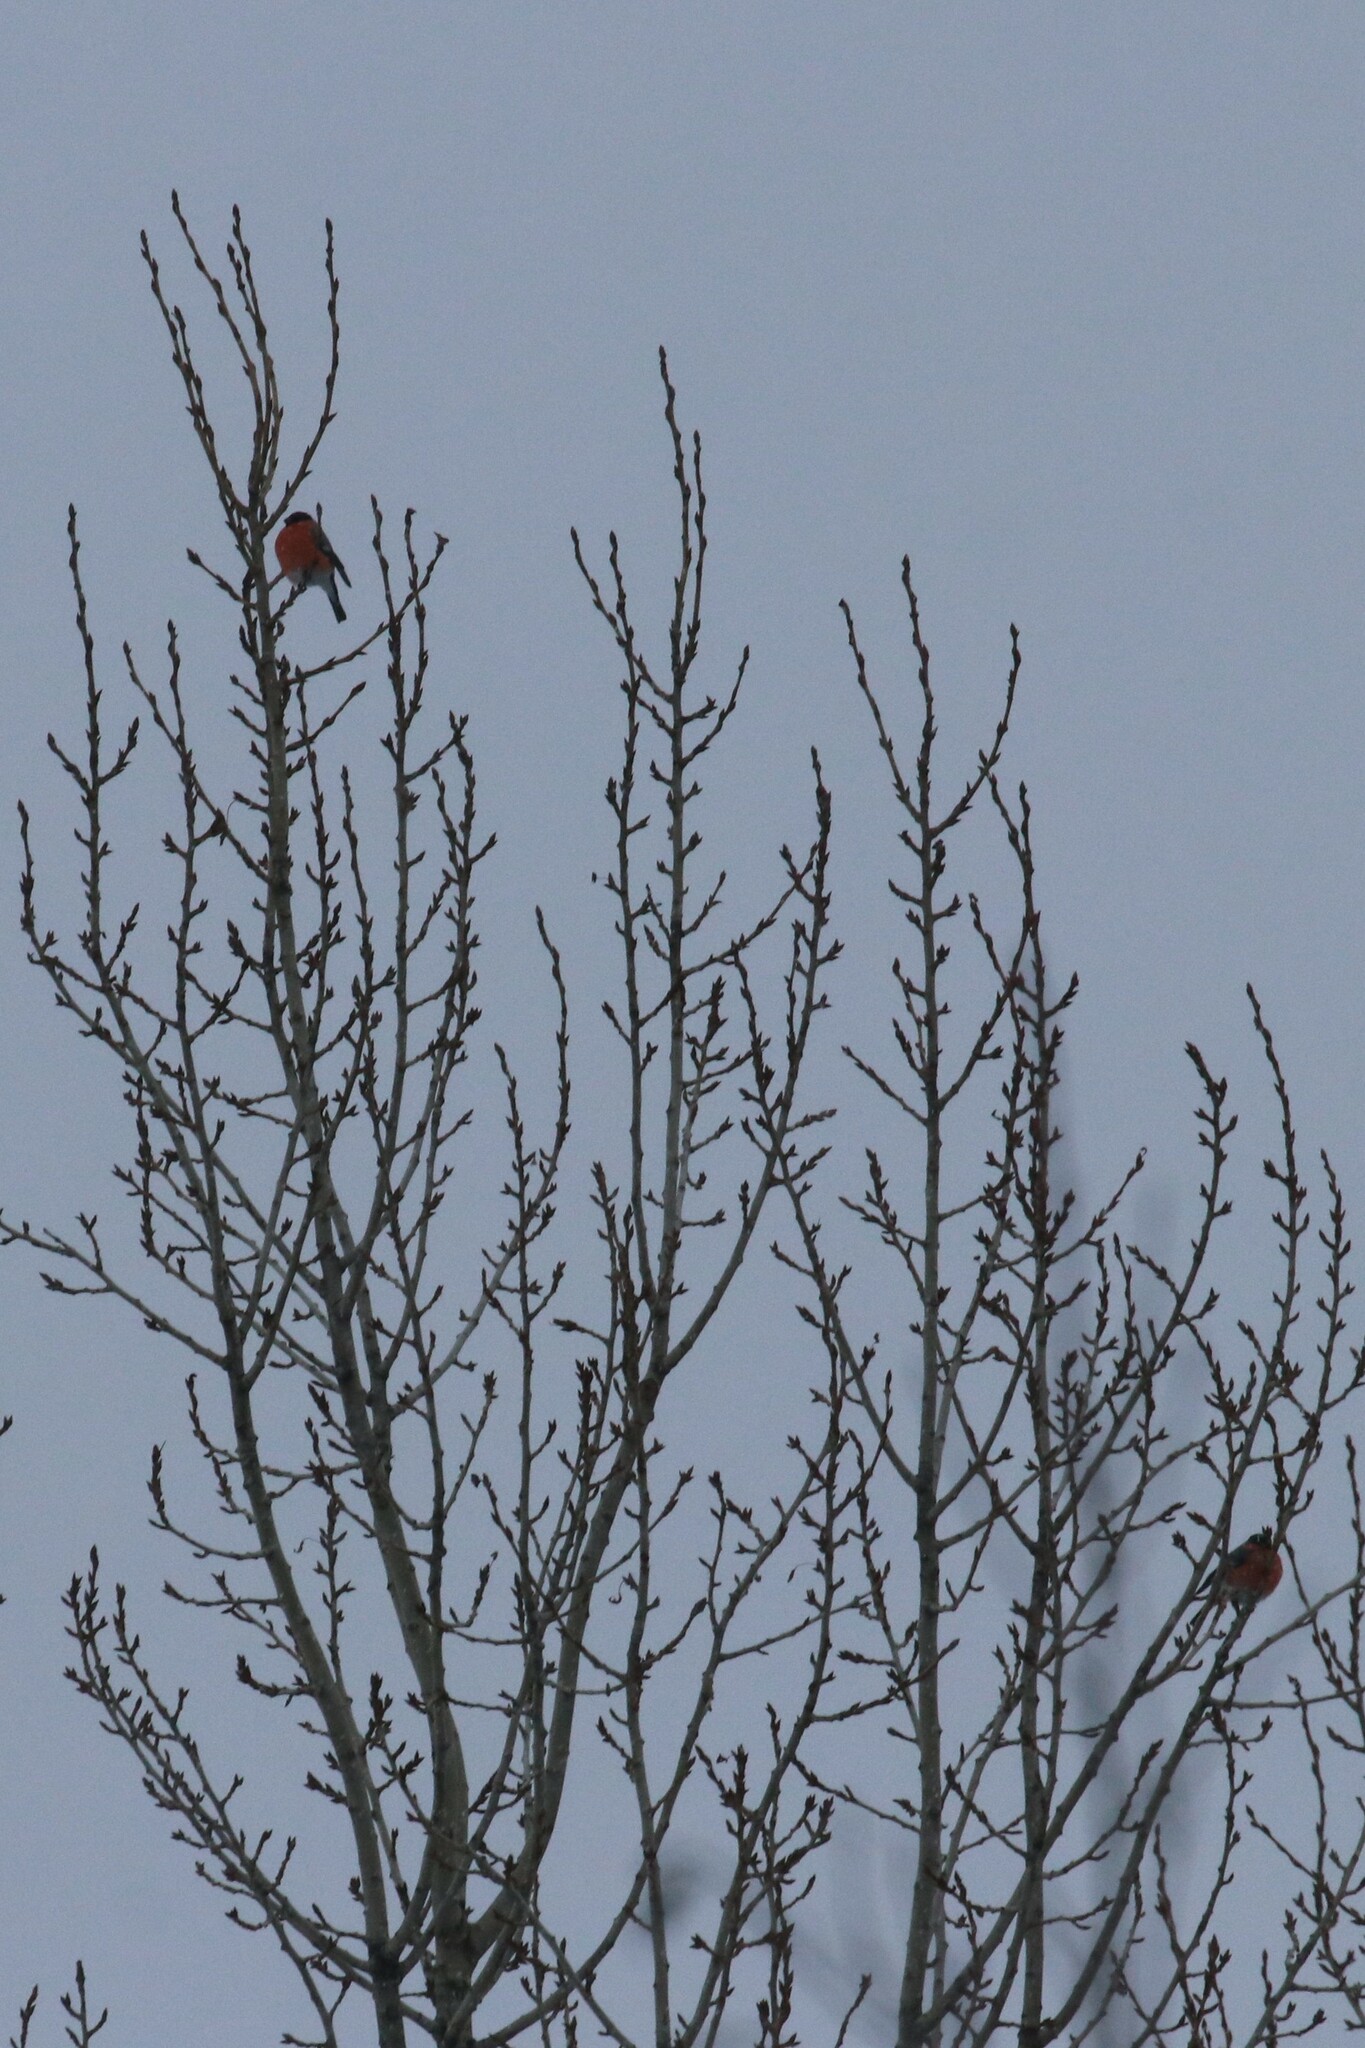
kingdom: Animalia
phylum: Chordata
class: Aves
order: Passeriformes
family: Fringillidae
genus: Pyrrhula
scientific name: Pyrrhula pyrrhula
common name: Eurasian bullfinch
